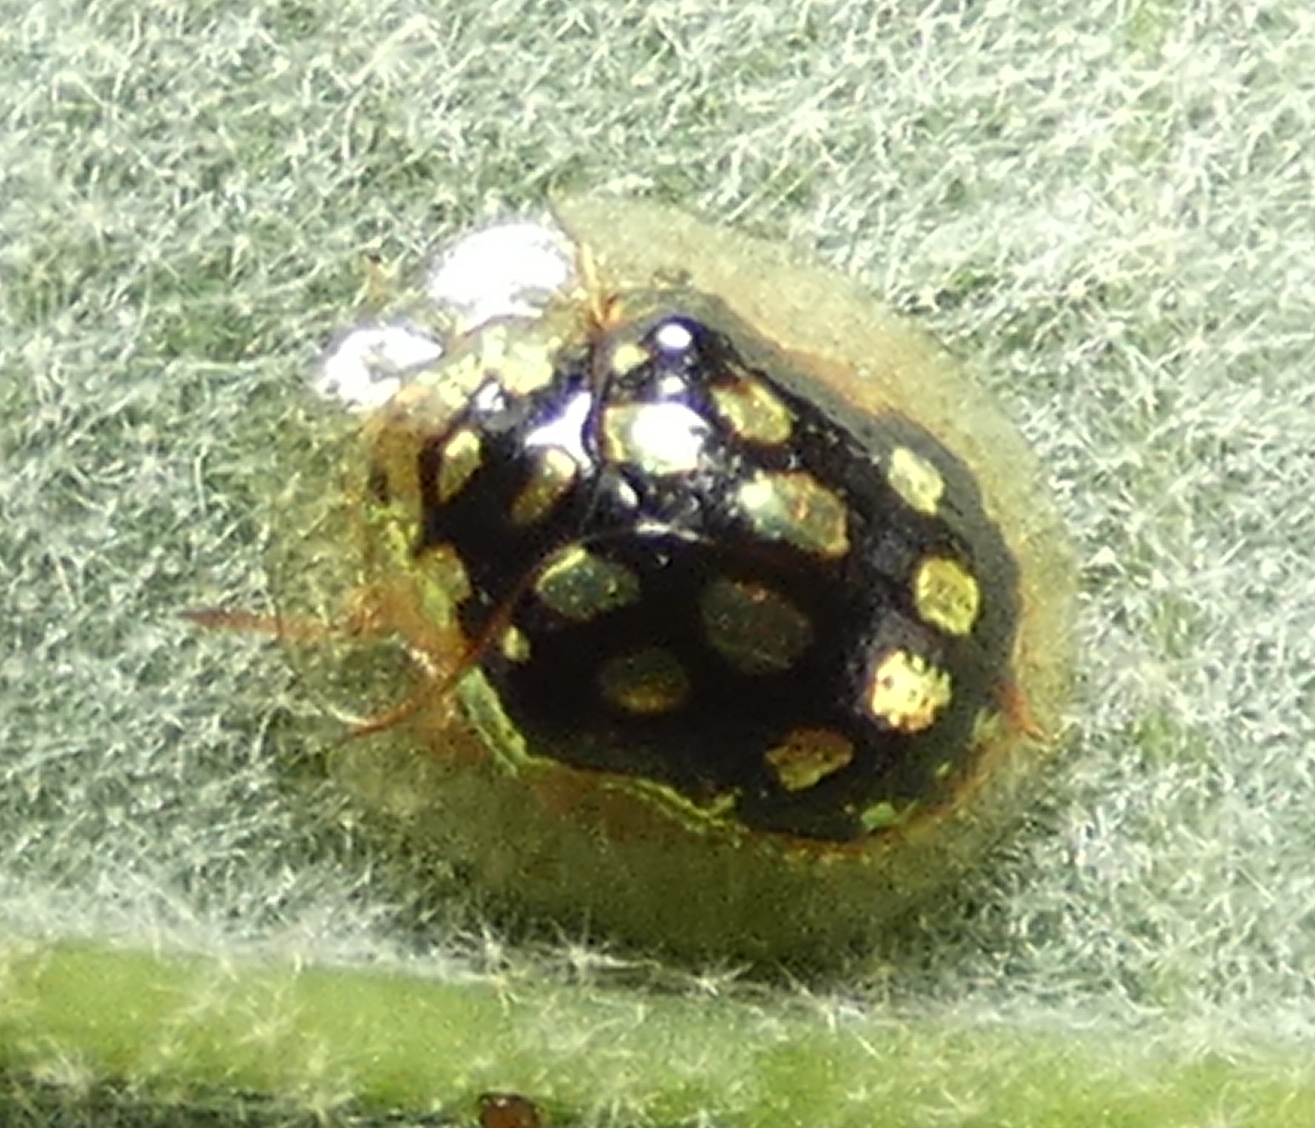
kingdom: Animalia
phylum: Arthropoda
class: Insecta
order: Coleoptera
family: Chrysomelidae
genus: Plagiometriona
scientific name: Plagiometriona microcera
